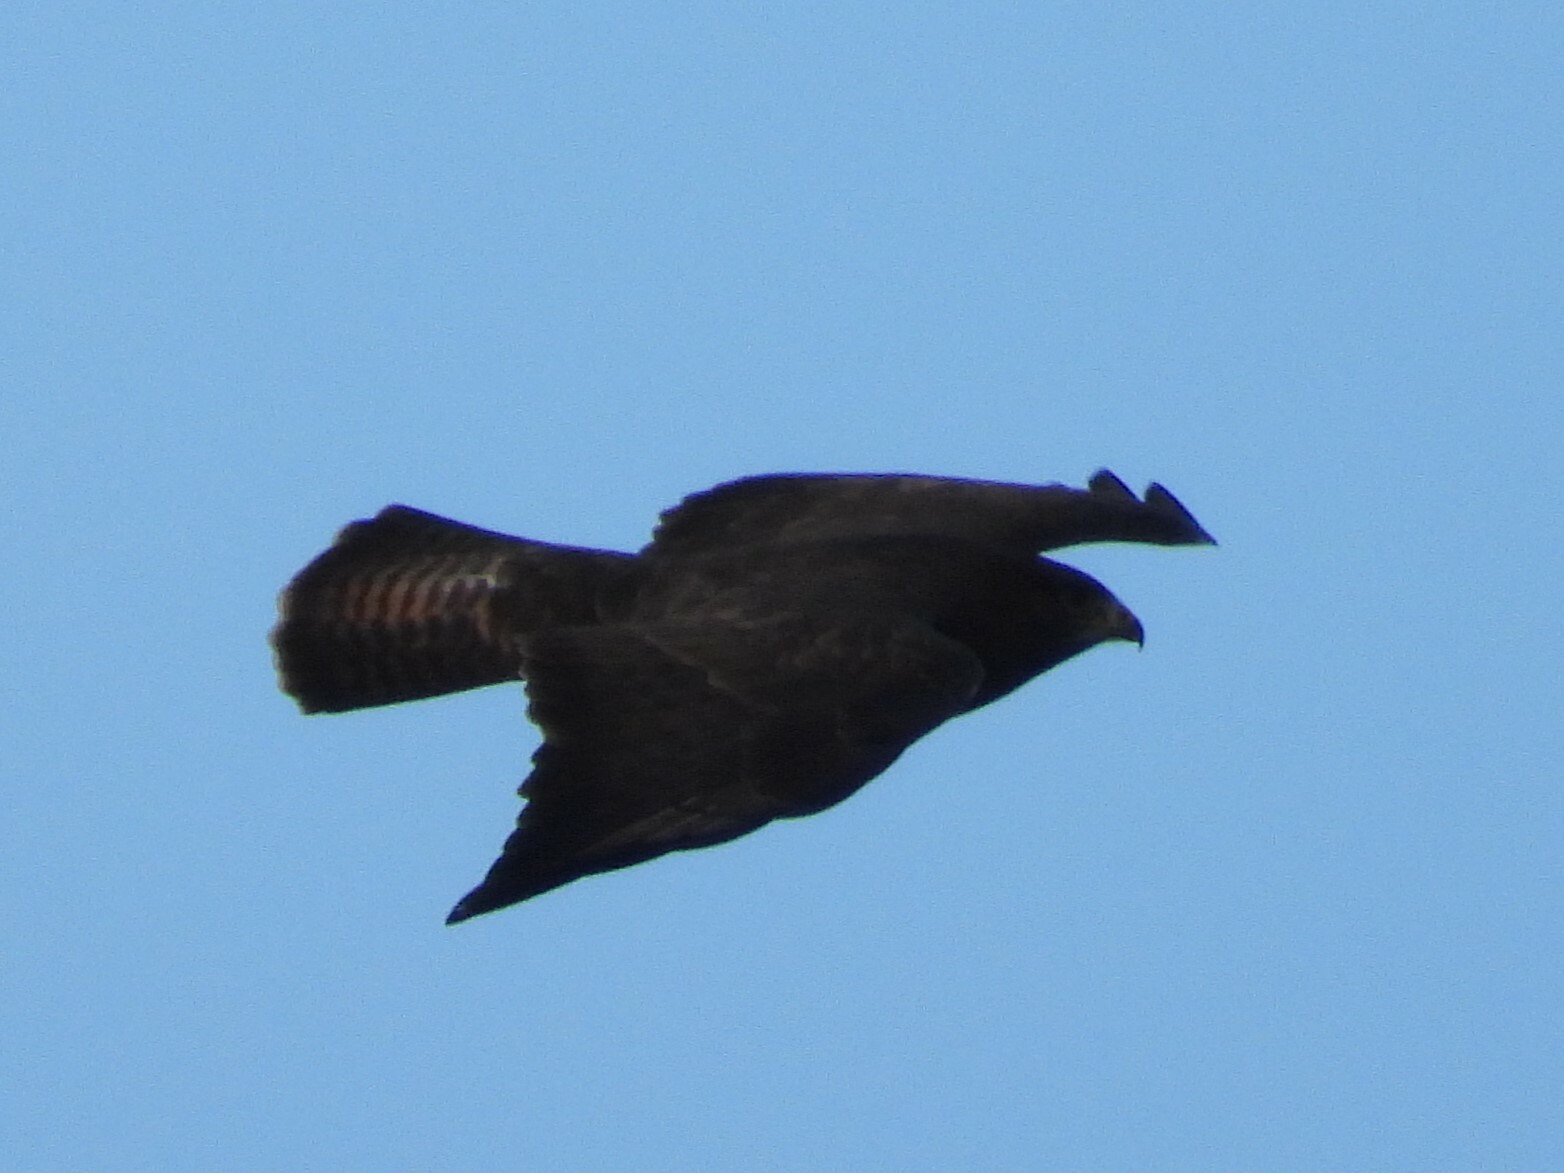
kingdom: Animalia
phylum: Chordata
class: Aves
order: Accipitriformes
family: Accipitridae
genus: Buteo
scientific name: Buteo buteo
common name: Common buzzard
